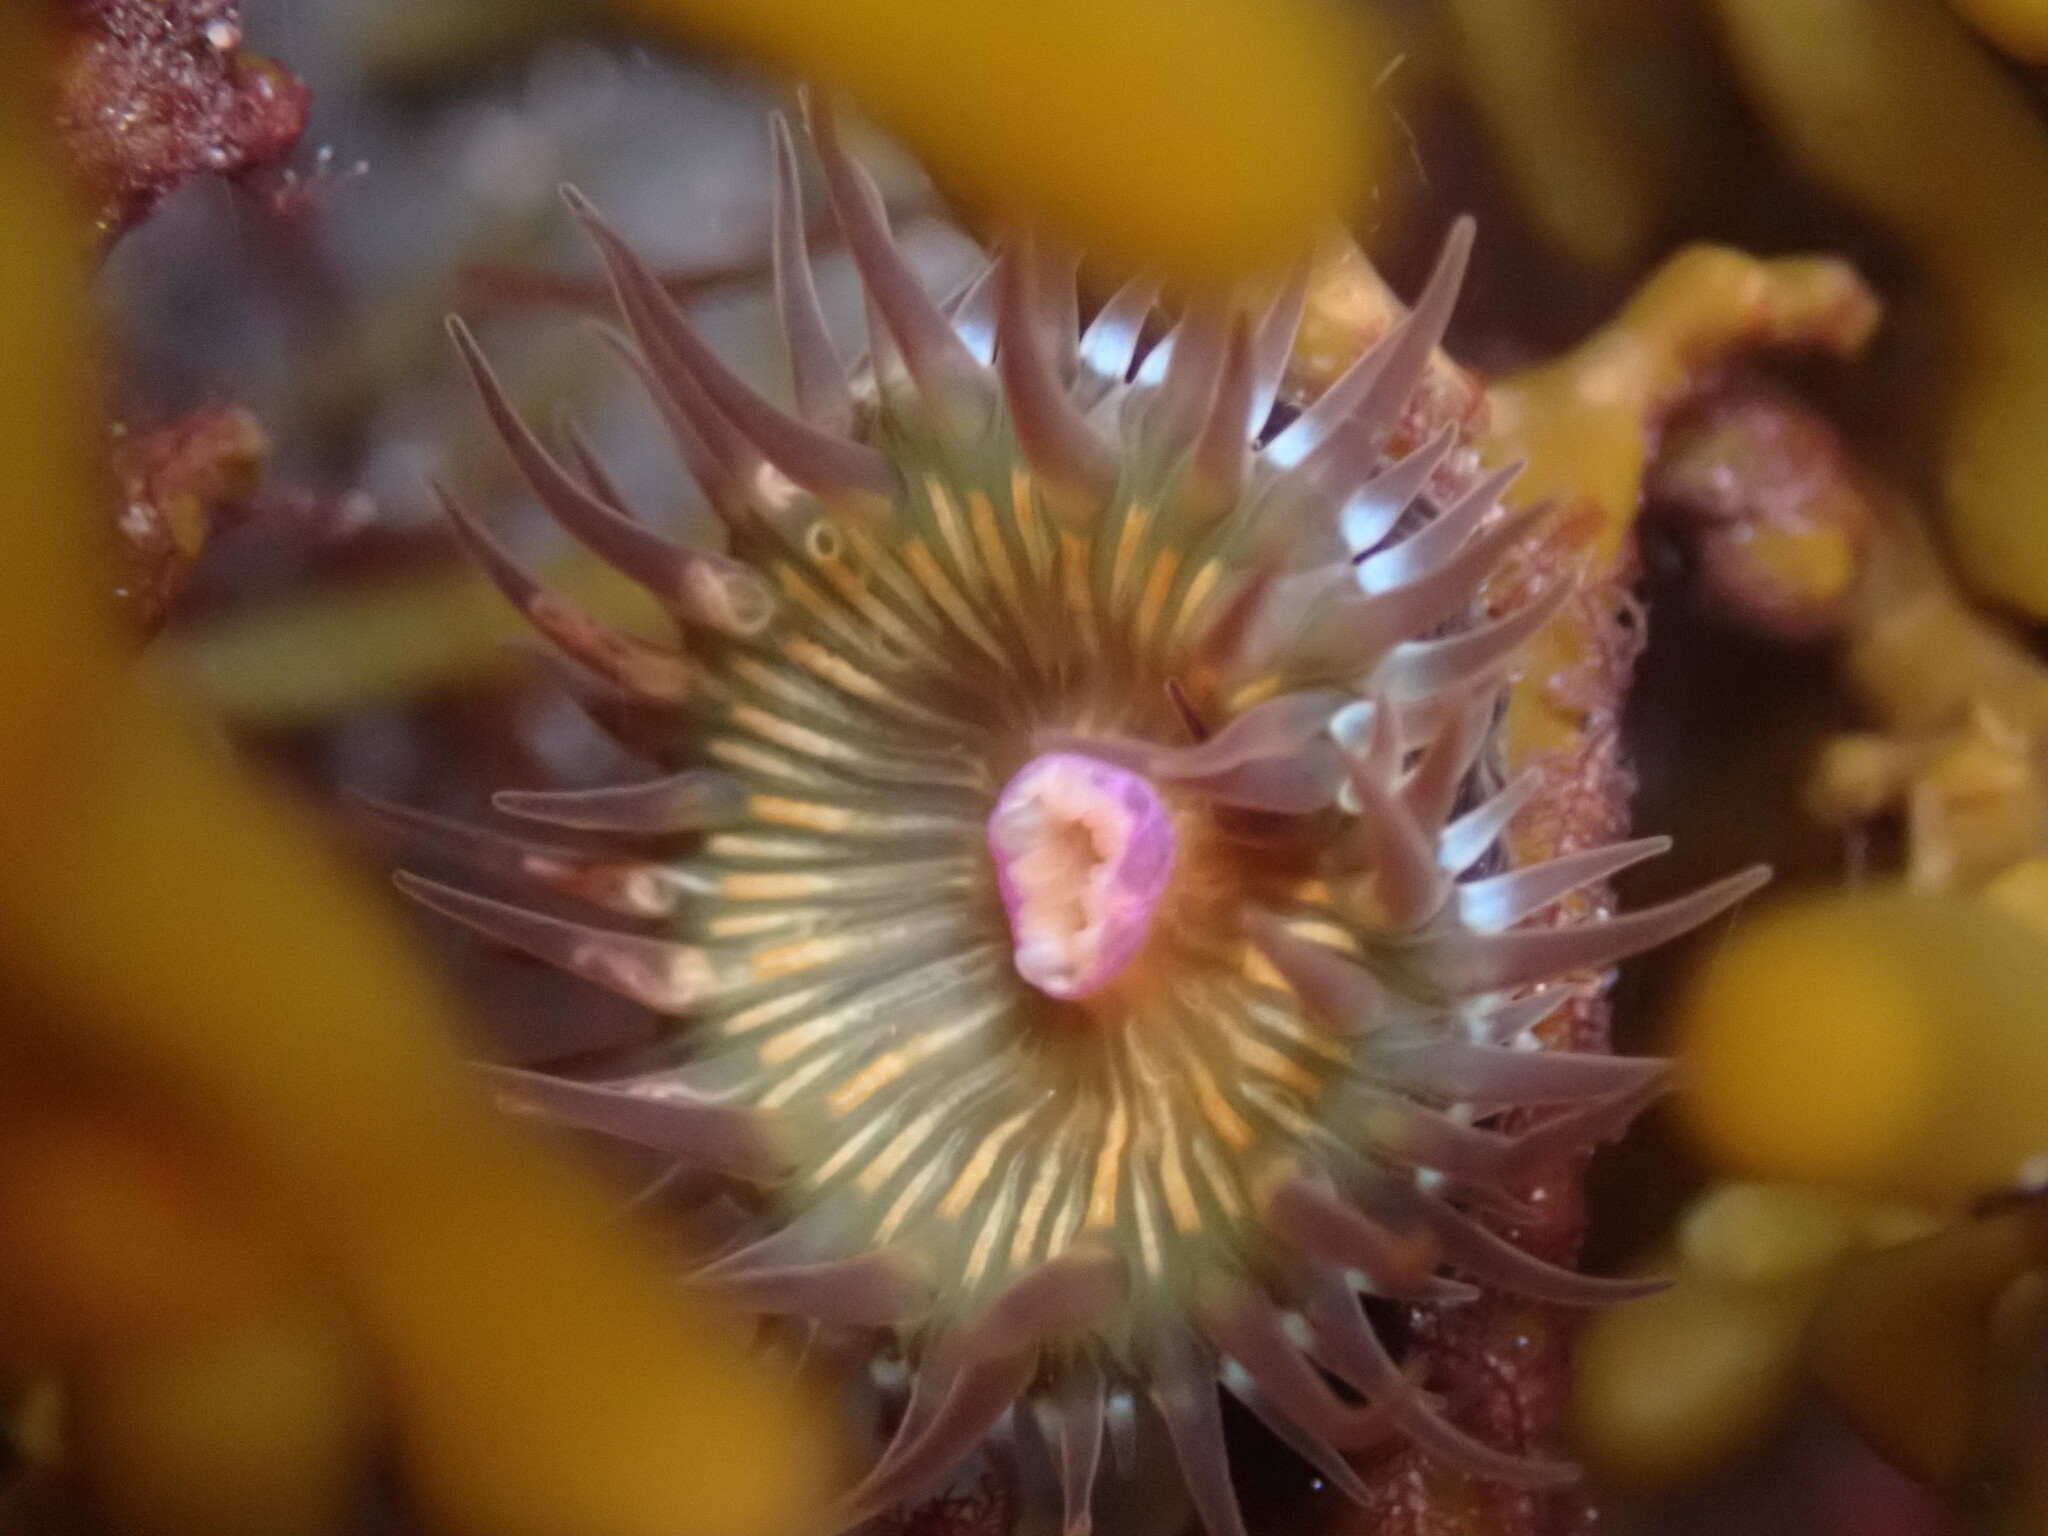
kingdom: Animalia
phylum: Cnidaria
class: Anthozoa
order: Actiniaria
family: Hormathiidae
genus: Handactis
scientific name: Handactis nutrix
